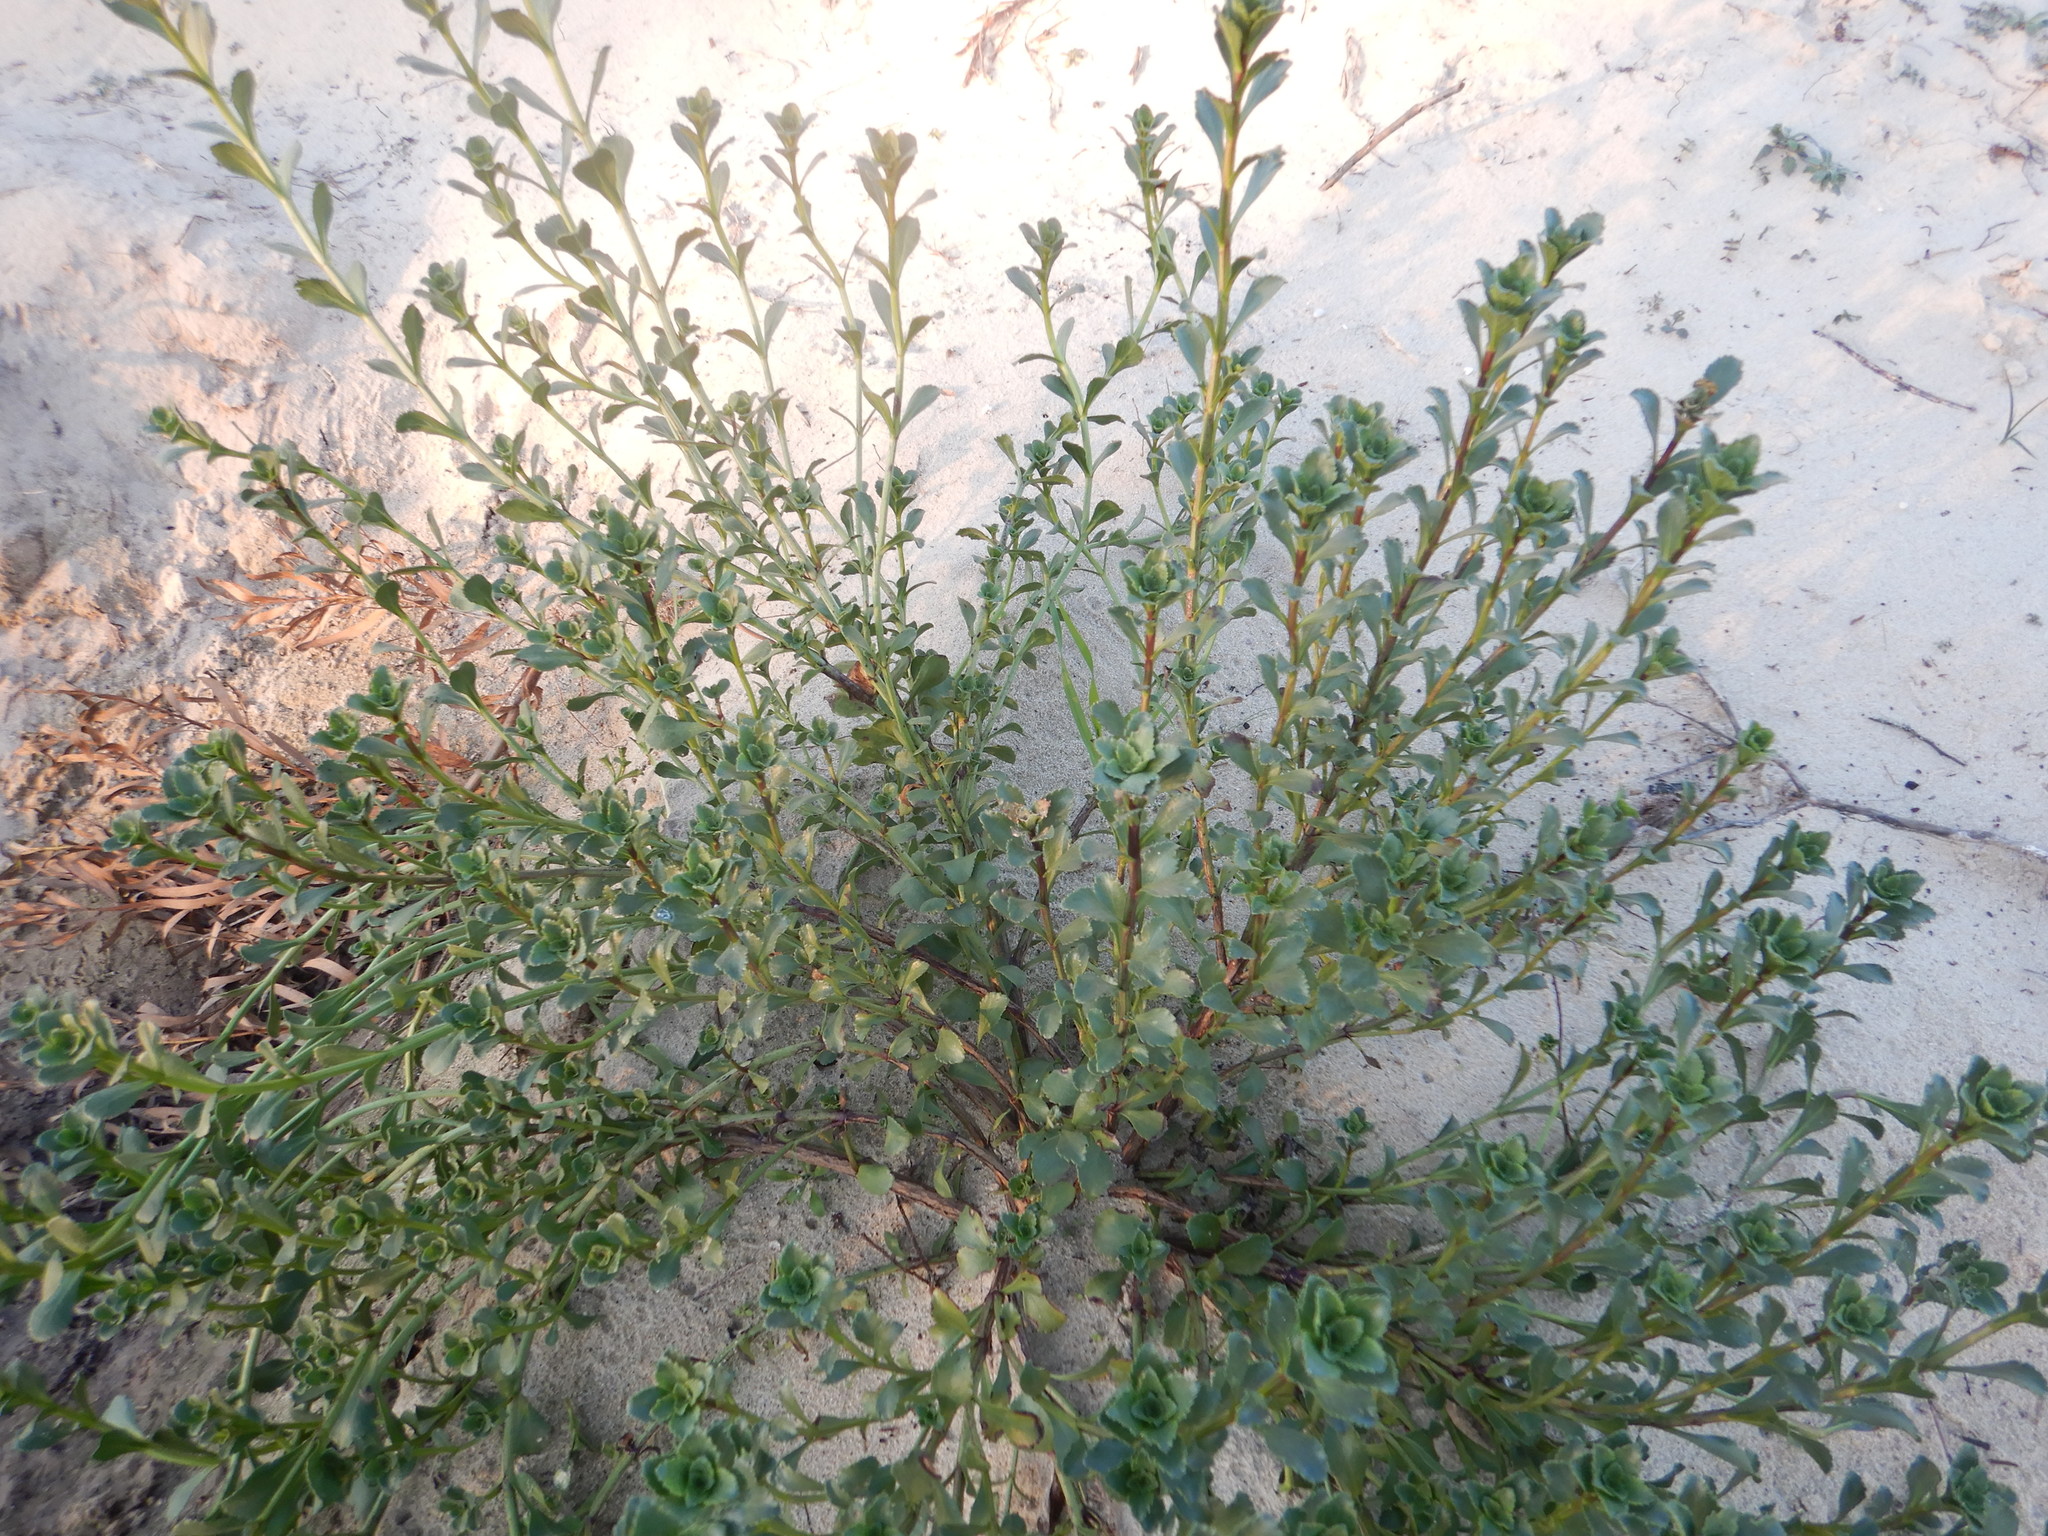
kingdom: Plantae
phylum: Tracheophyta
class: Magnoliopsida
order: Lamiales
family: Scrophulariaceae
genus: Scrophularia
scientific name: Scrophularia frutescens
